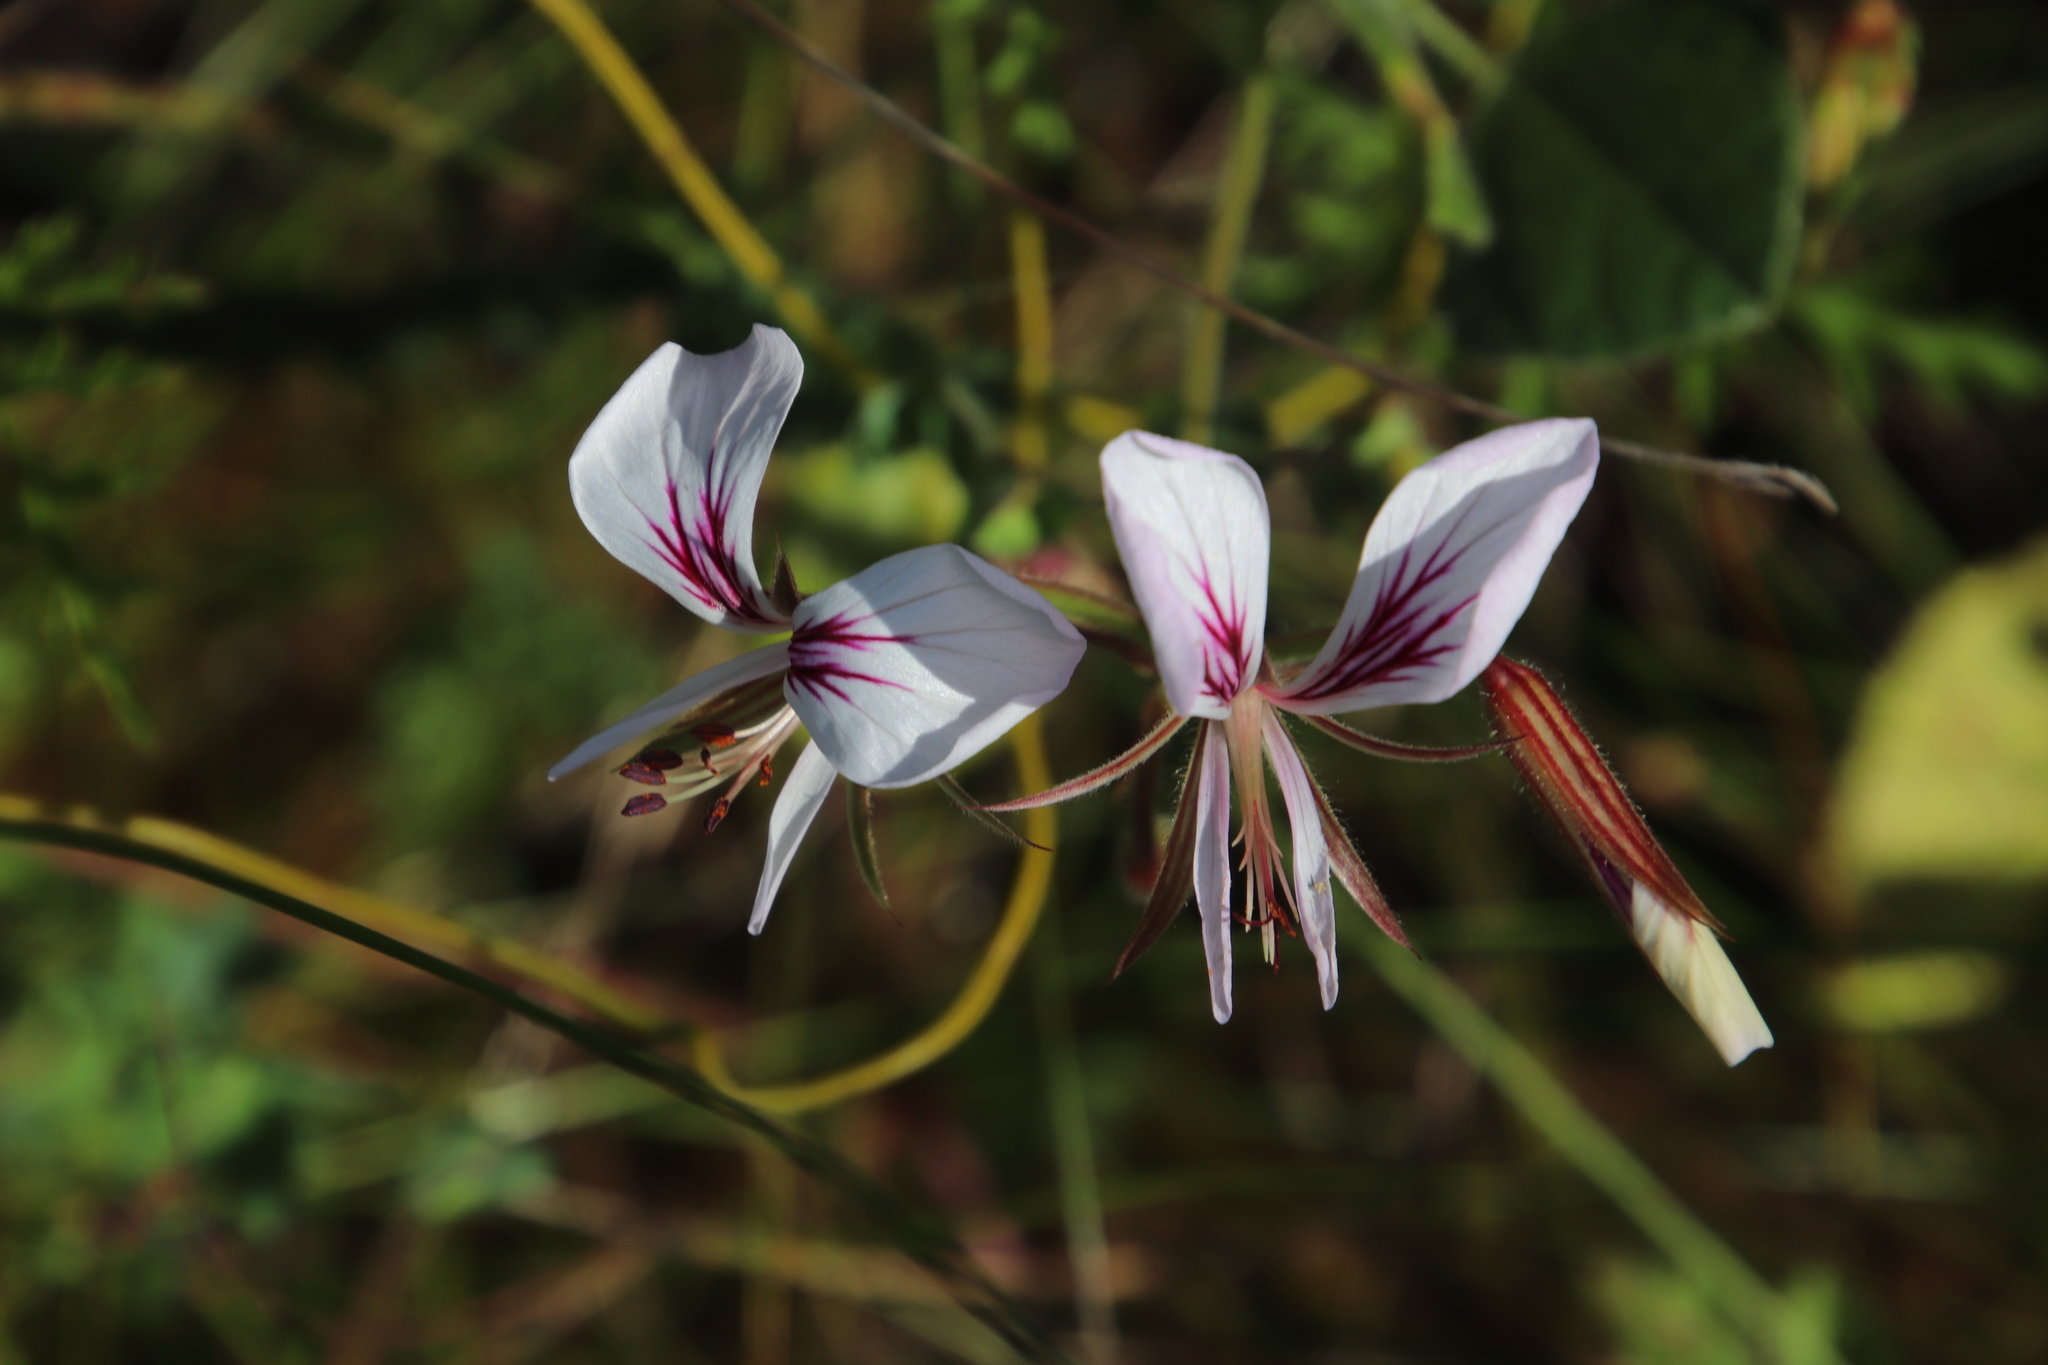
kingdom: Plantae
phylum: Tracheophyta
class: Magnoliopsida
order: Geraniales
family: Geraniaceae
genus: Pelargonium
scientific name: Pelargonium myrrhifolium
